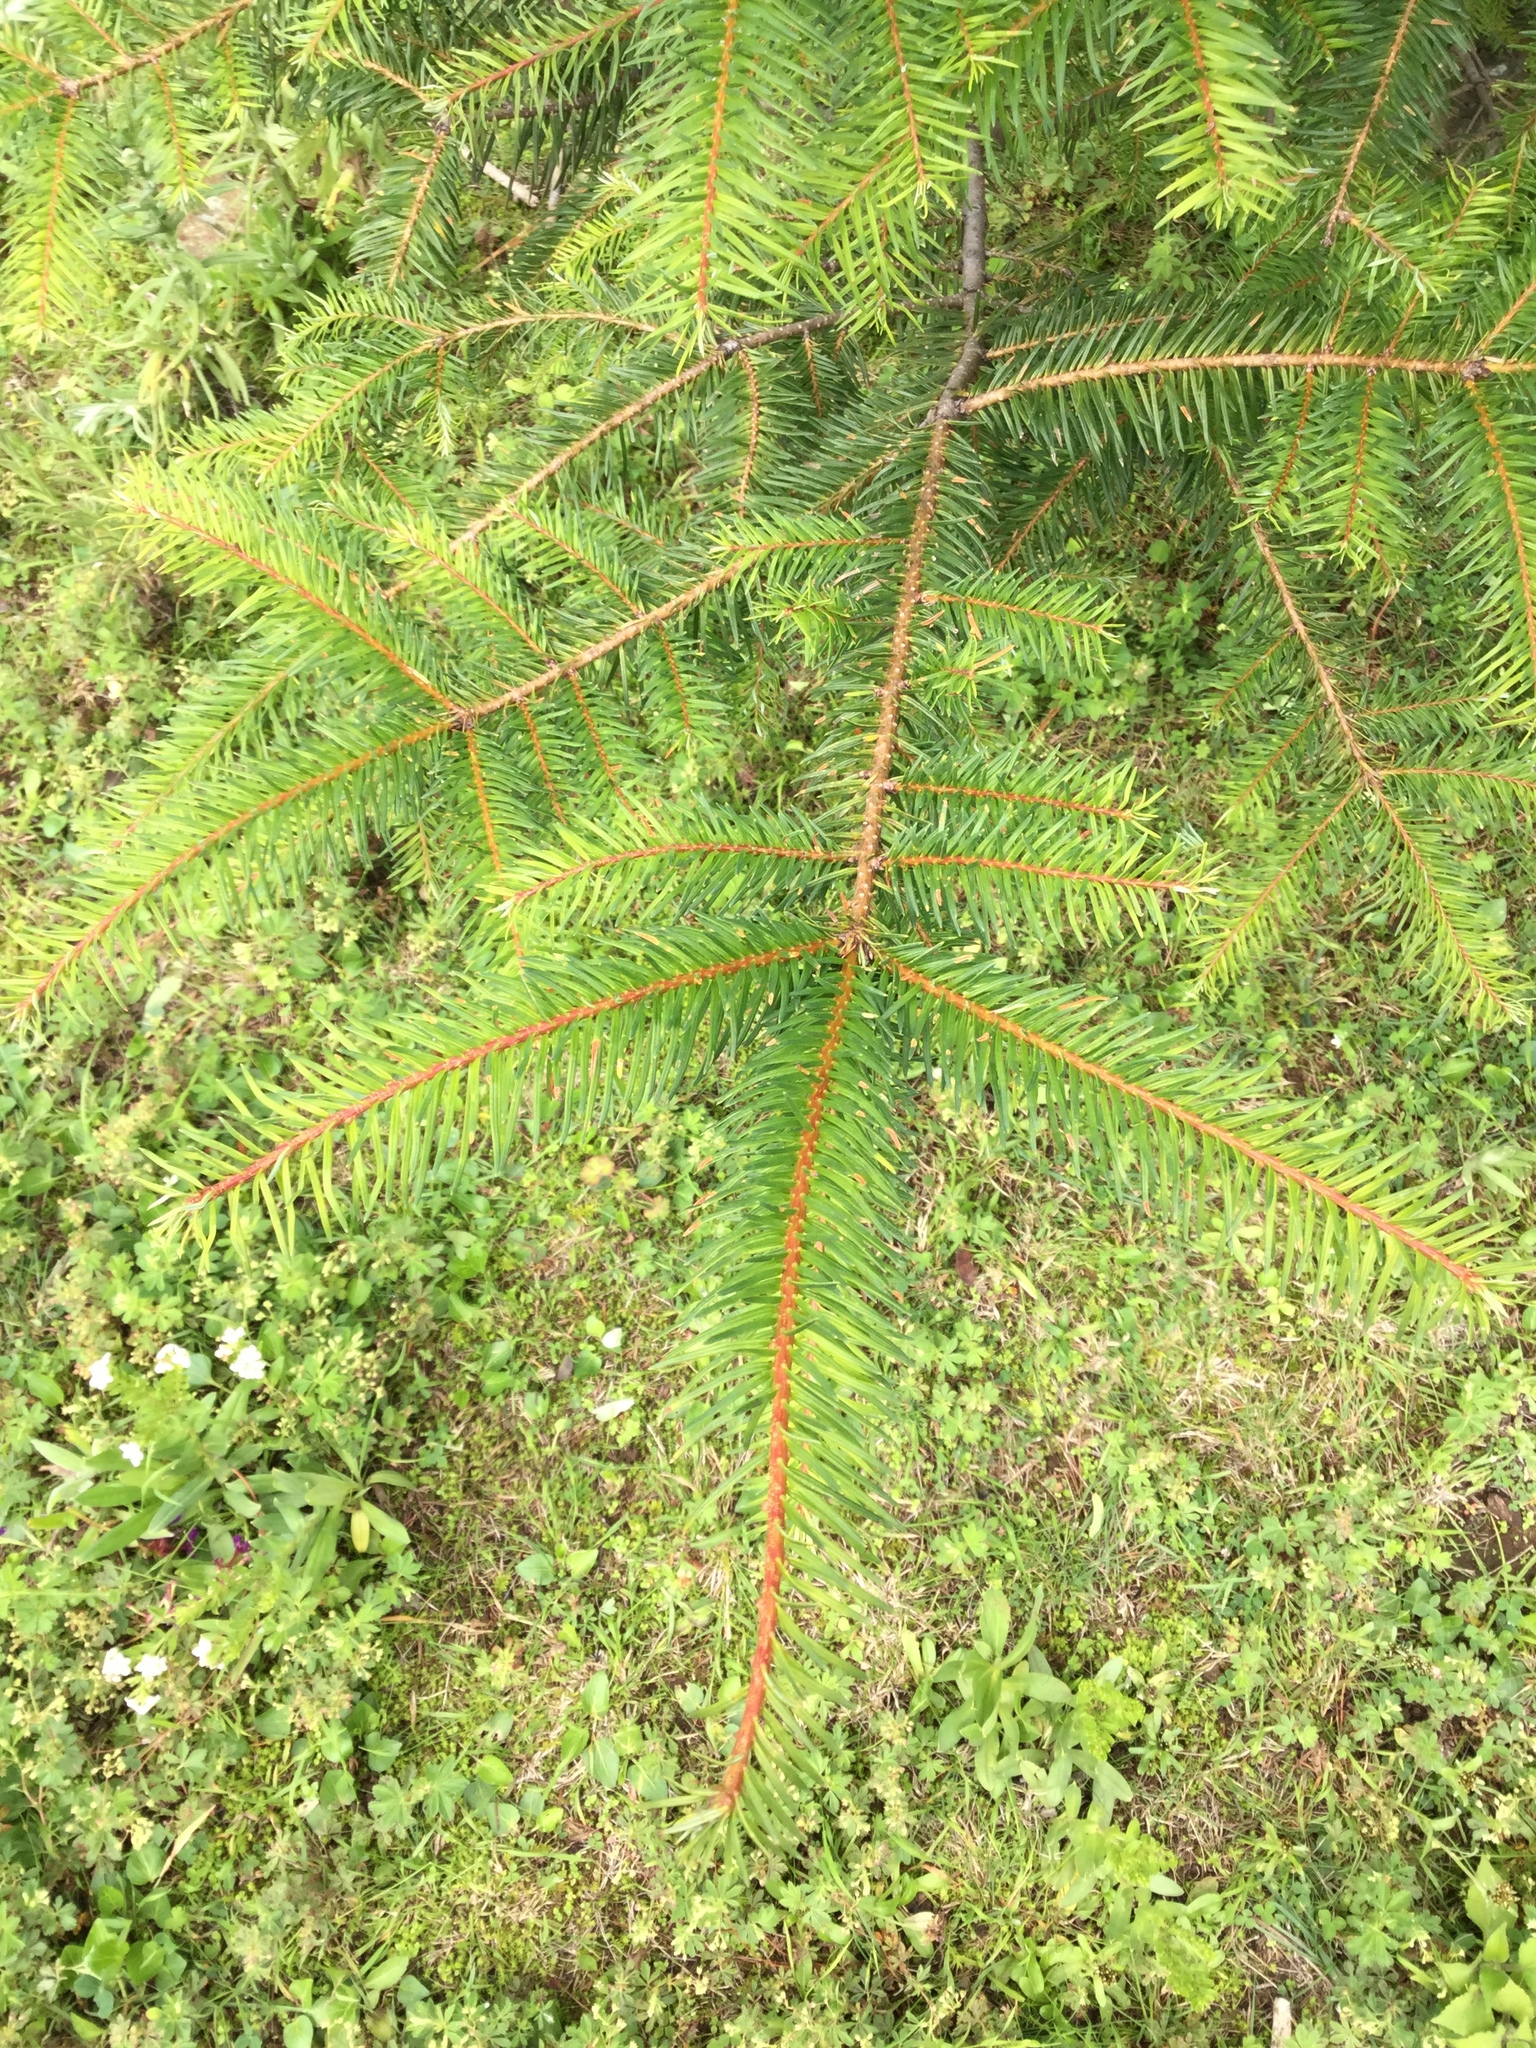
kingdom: Plantae
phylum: Tracheophyta
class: Pinopsida
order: Pinales
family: Pinaceae
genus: Abies
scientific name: Abies religiosa
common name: Sacred fir
